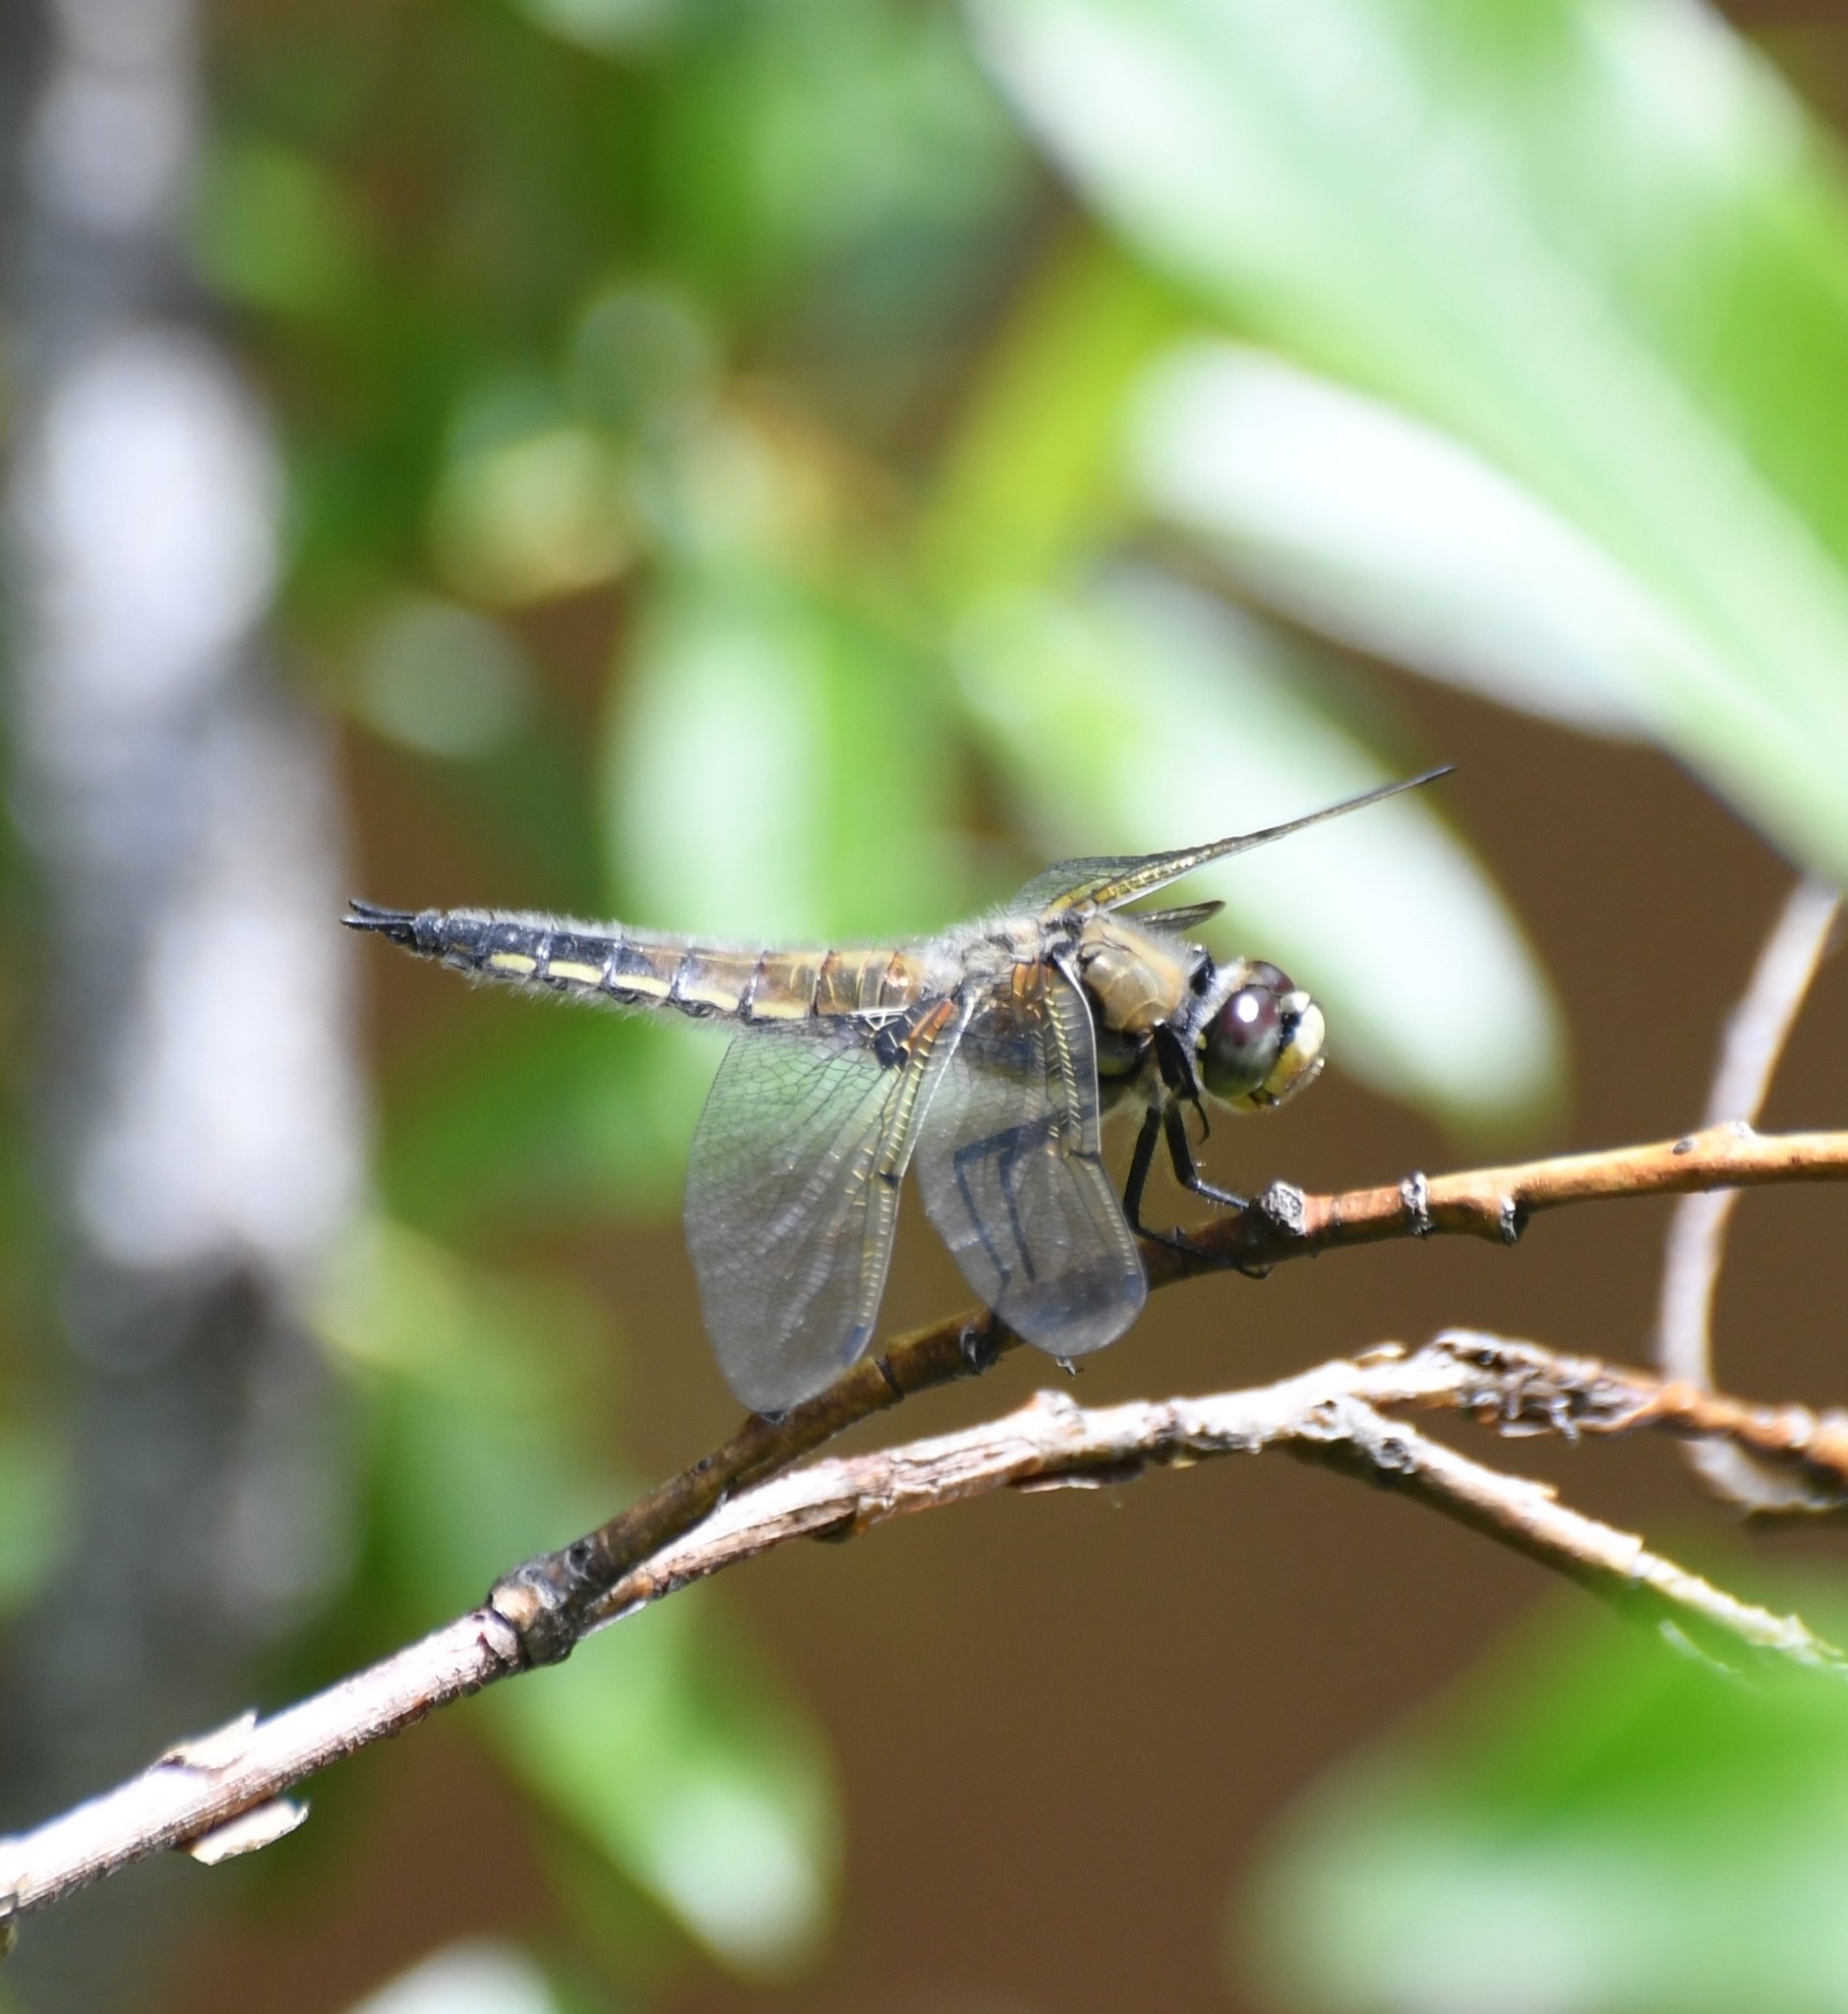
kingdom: Animalia
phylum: Arthropoda
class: Insecta
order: Odonata
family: Libellulidae
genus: Libellula
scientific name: Libellula quadrimaculata
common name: Four-spotted chaser
